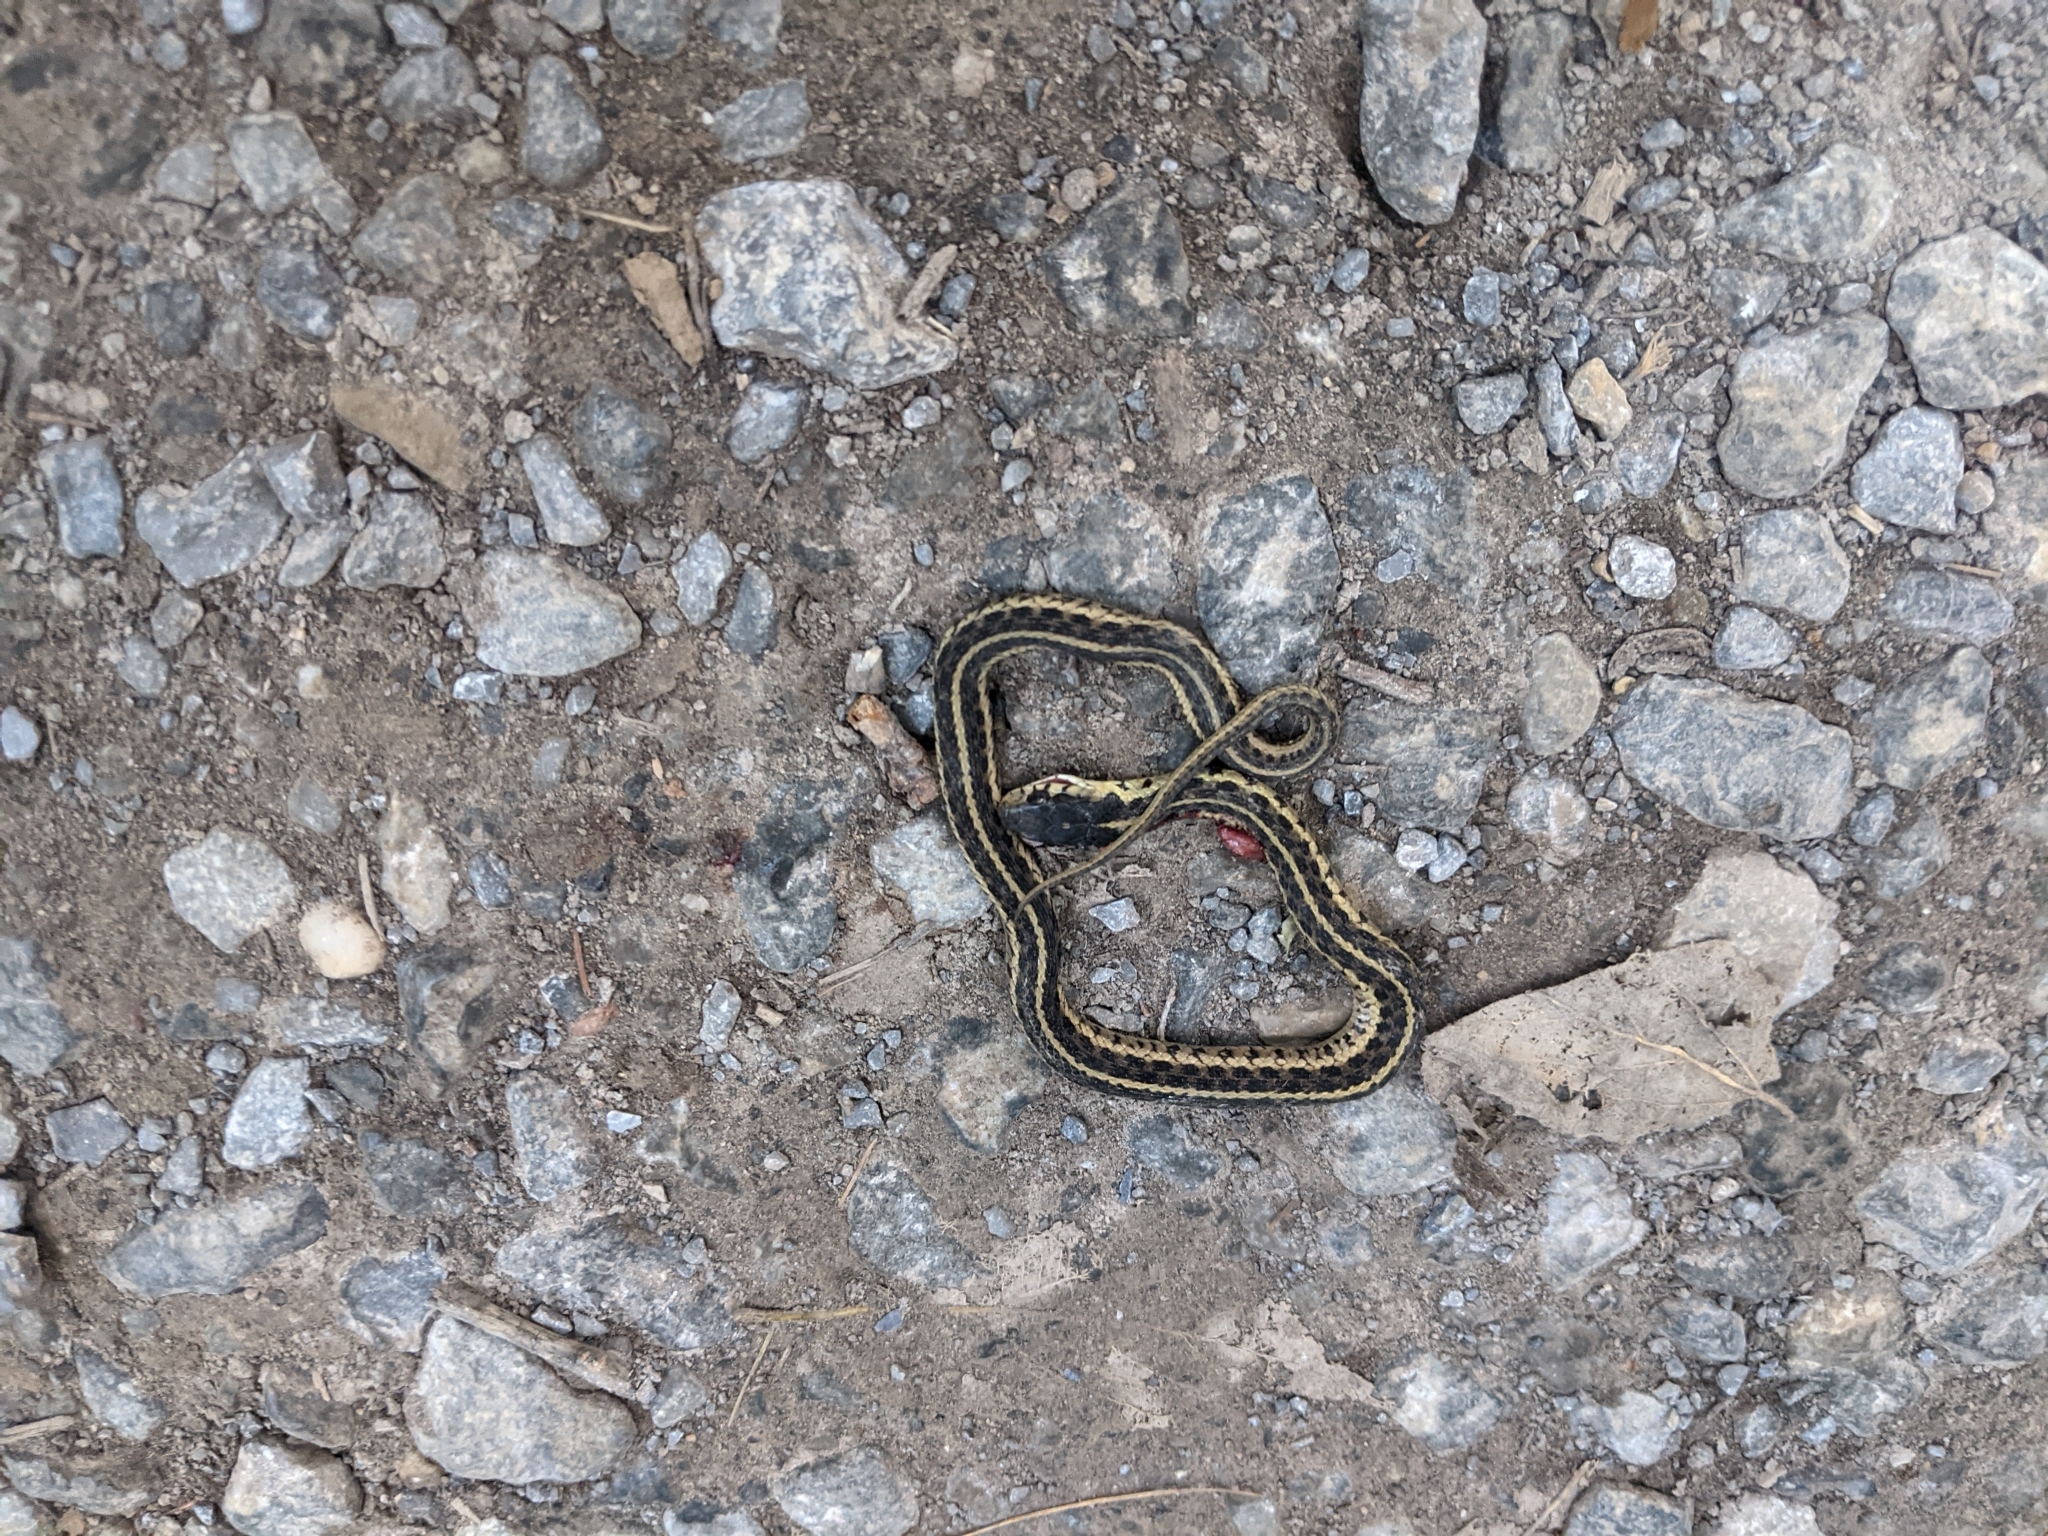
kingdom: Animalia
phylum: Chordata
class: Squamata
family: Colubridae
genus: Thamnophis
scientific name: Thamnophis sirtalis
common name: Common garter snake
